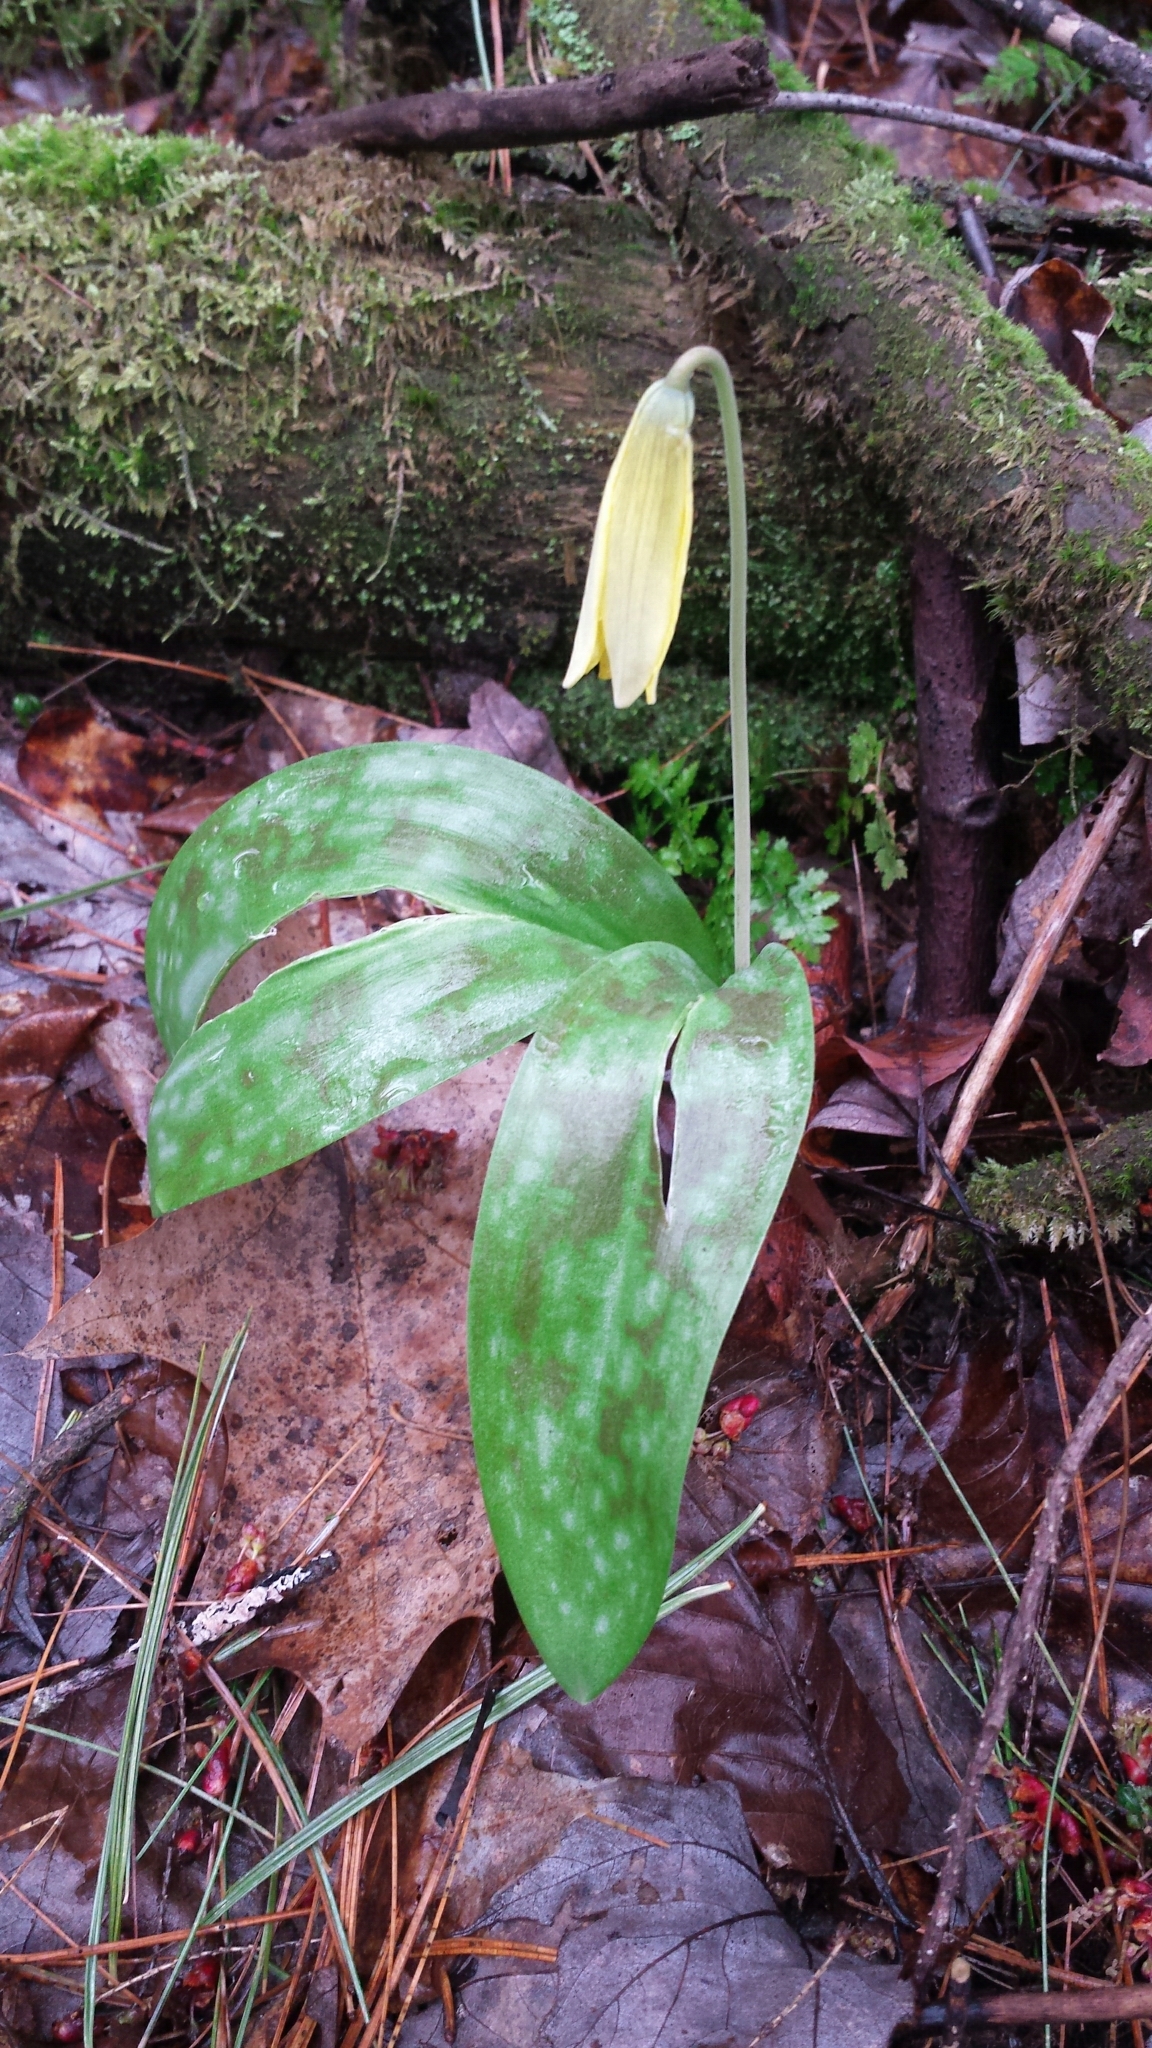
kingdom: Plantae
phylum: Tracheophyta
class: Liliopsida
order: Liliales
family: Liliaceae
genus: Erythronium
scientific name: Erythronium americanum
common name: Yellow adder's-tongue
